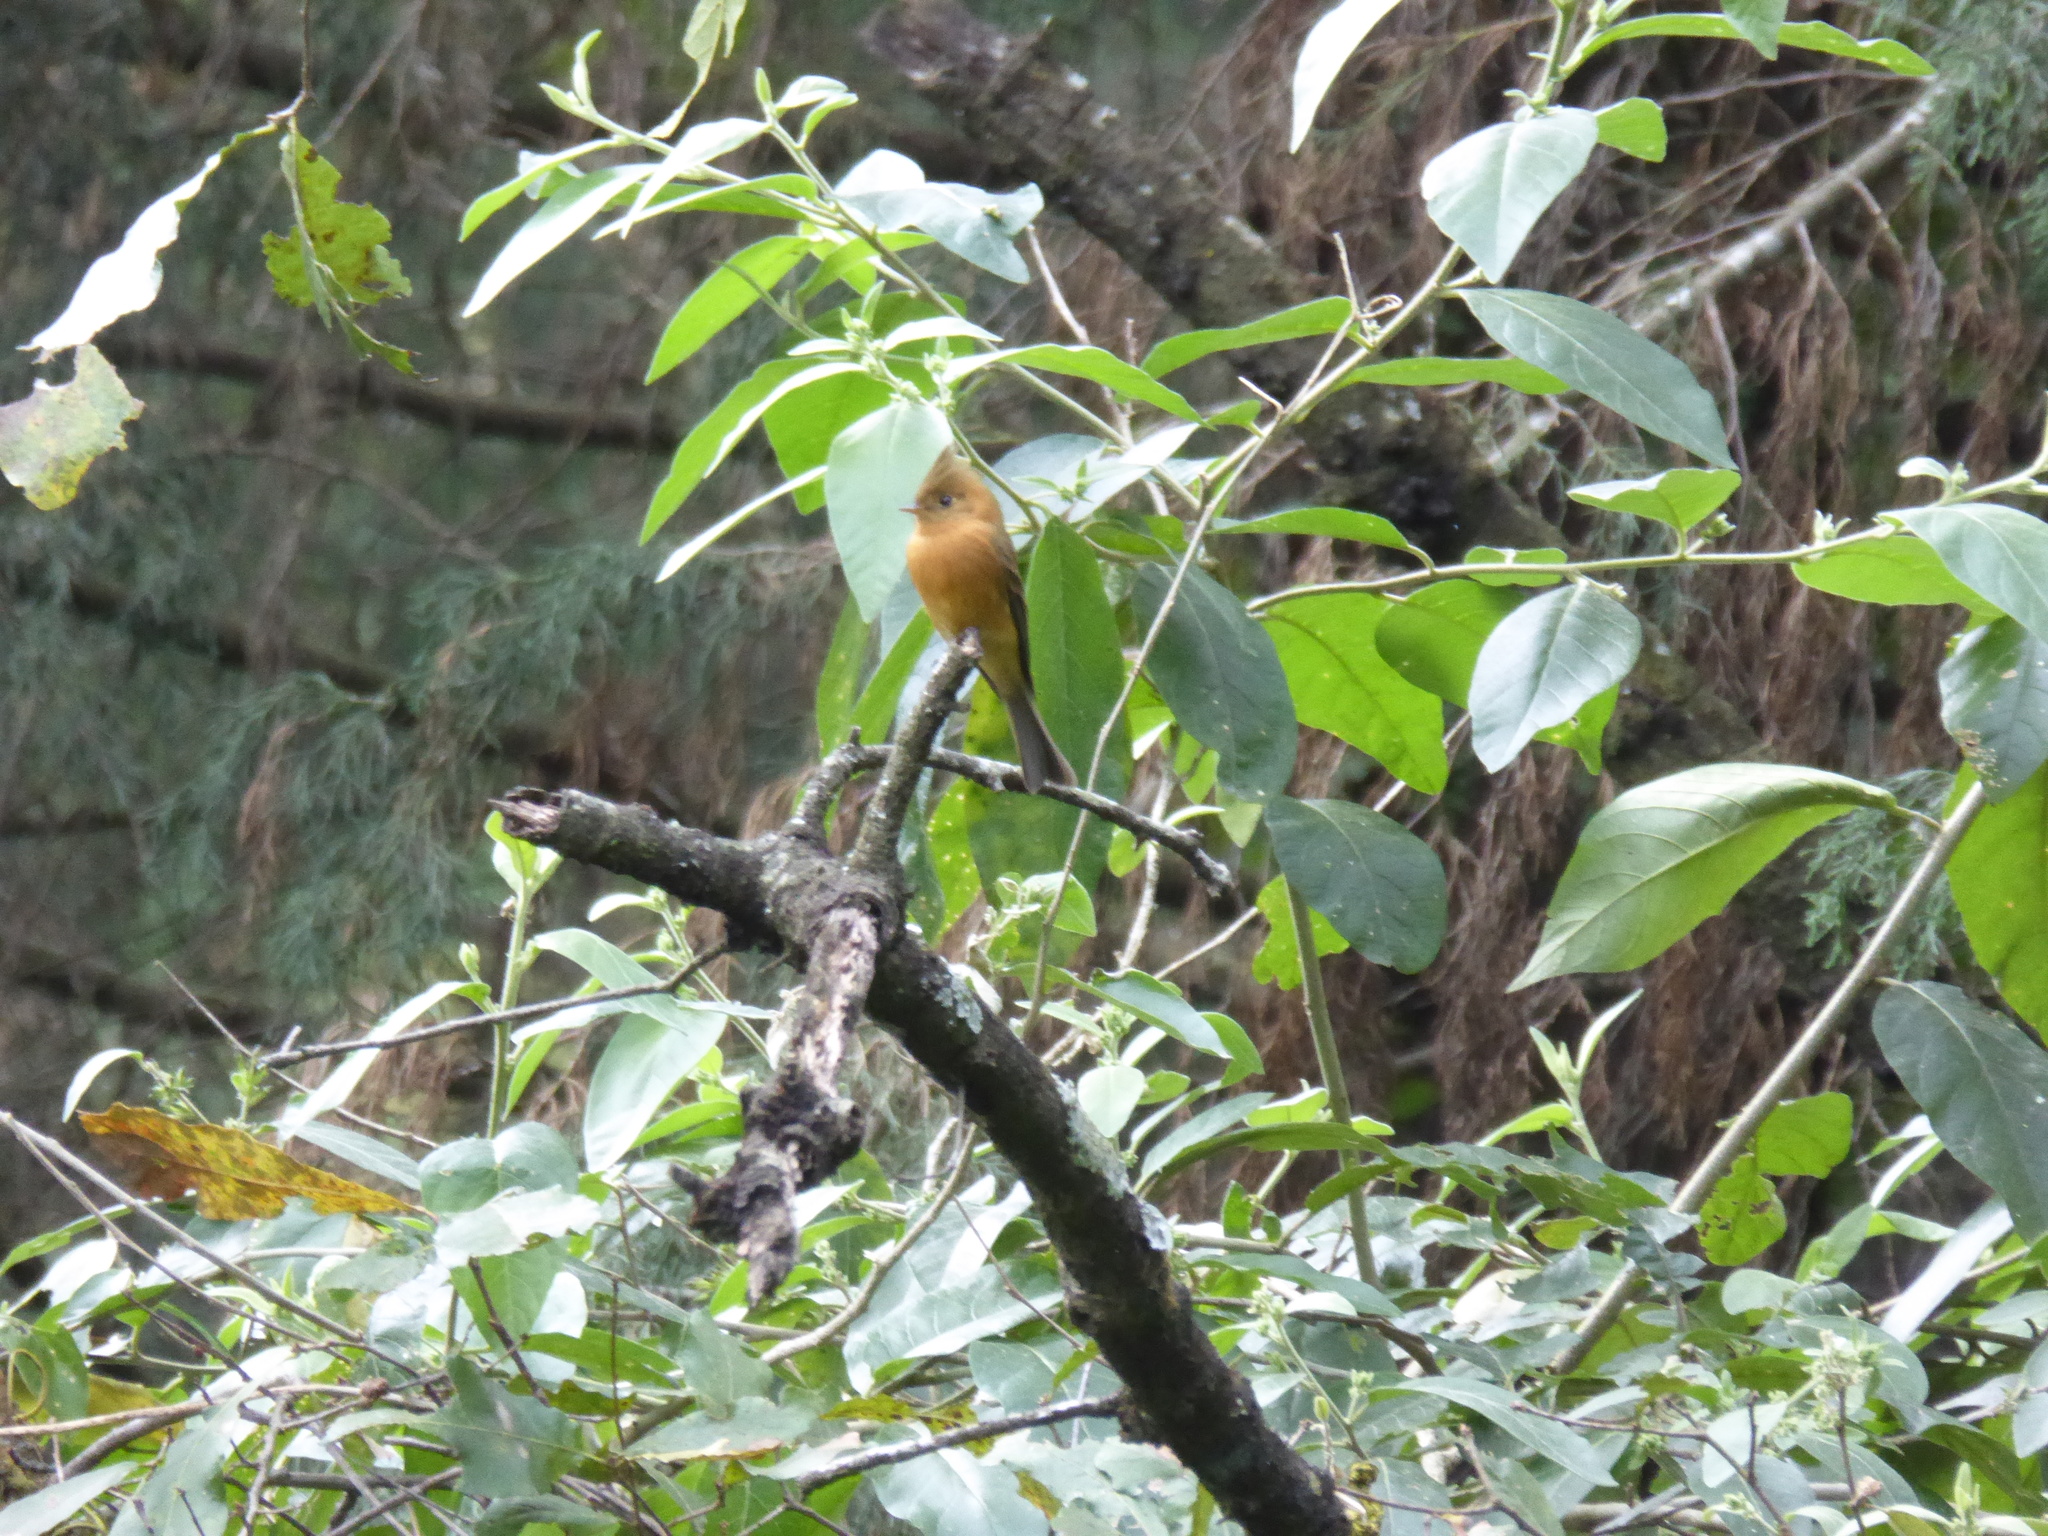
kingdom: Animalia
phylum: Chordata
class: Aves
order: Passeriformes
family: Tyrannidae
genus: Mitrephanes
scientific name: Mitrephanes phaeocercus
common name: Northern tufted flycatcher
